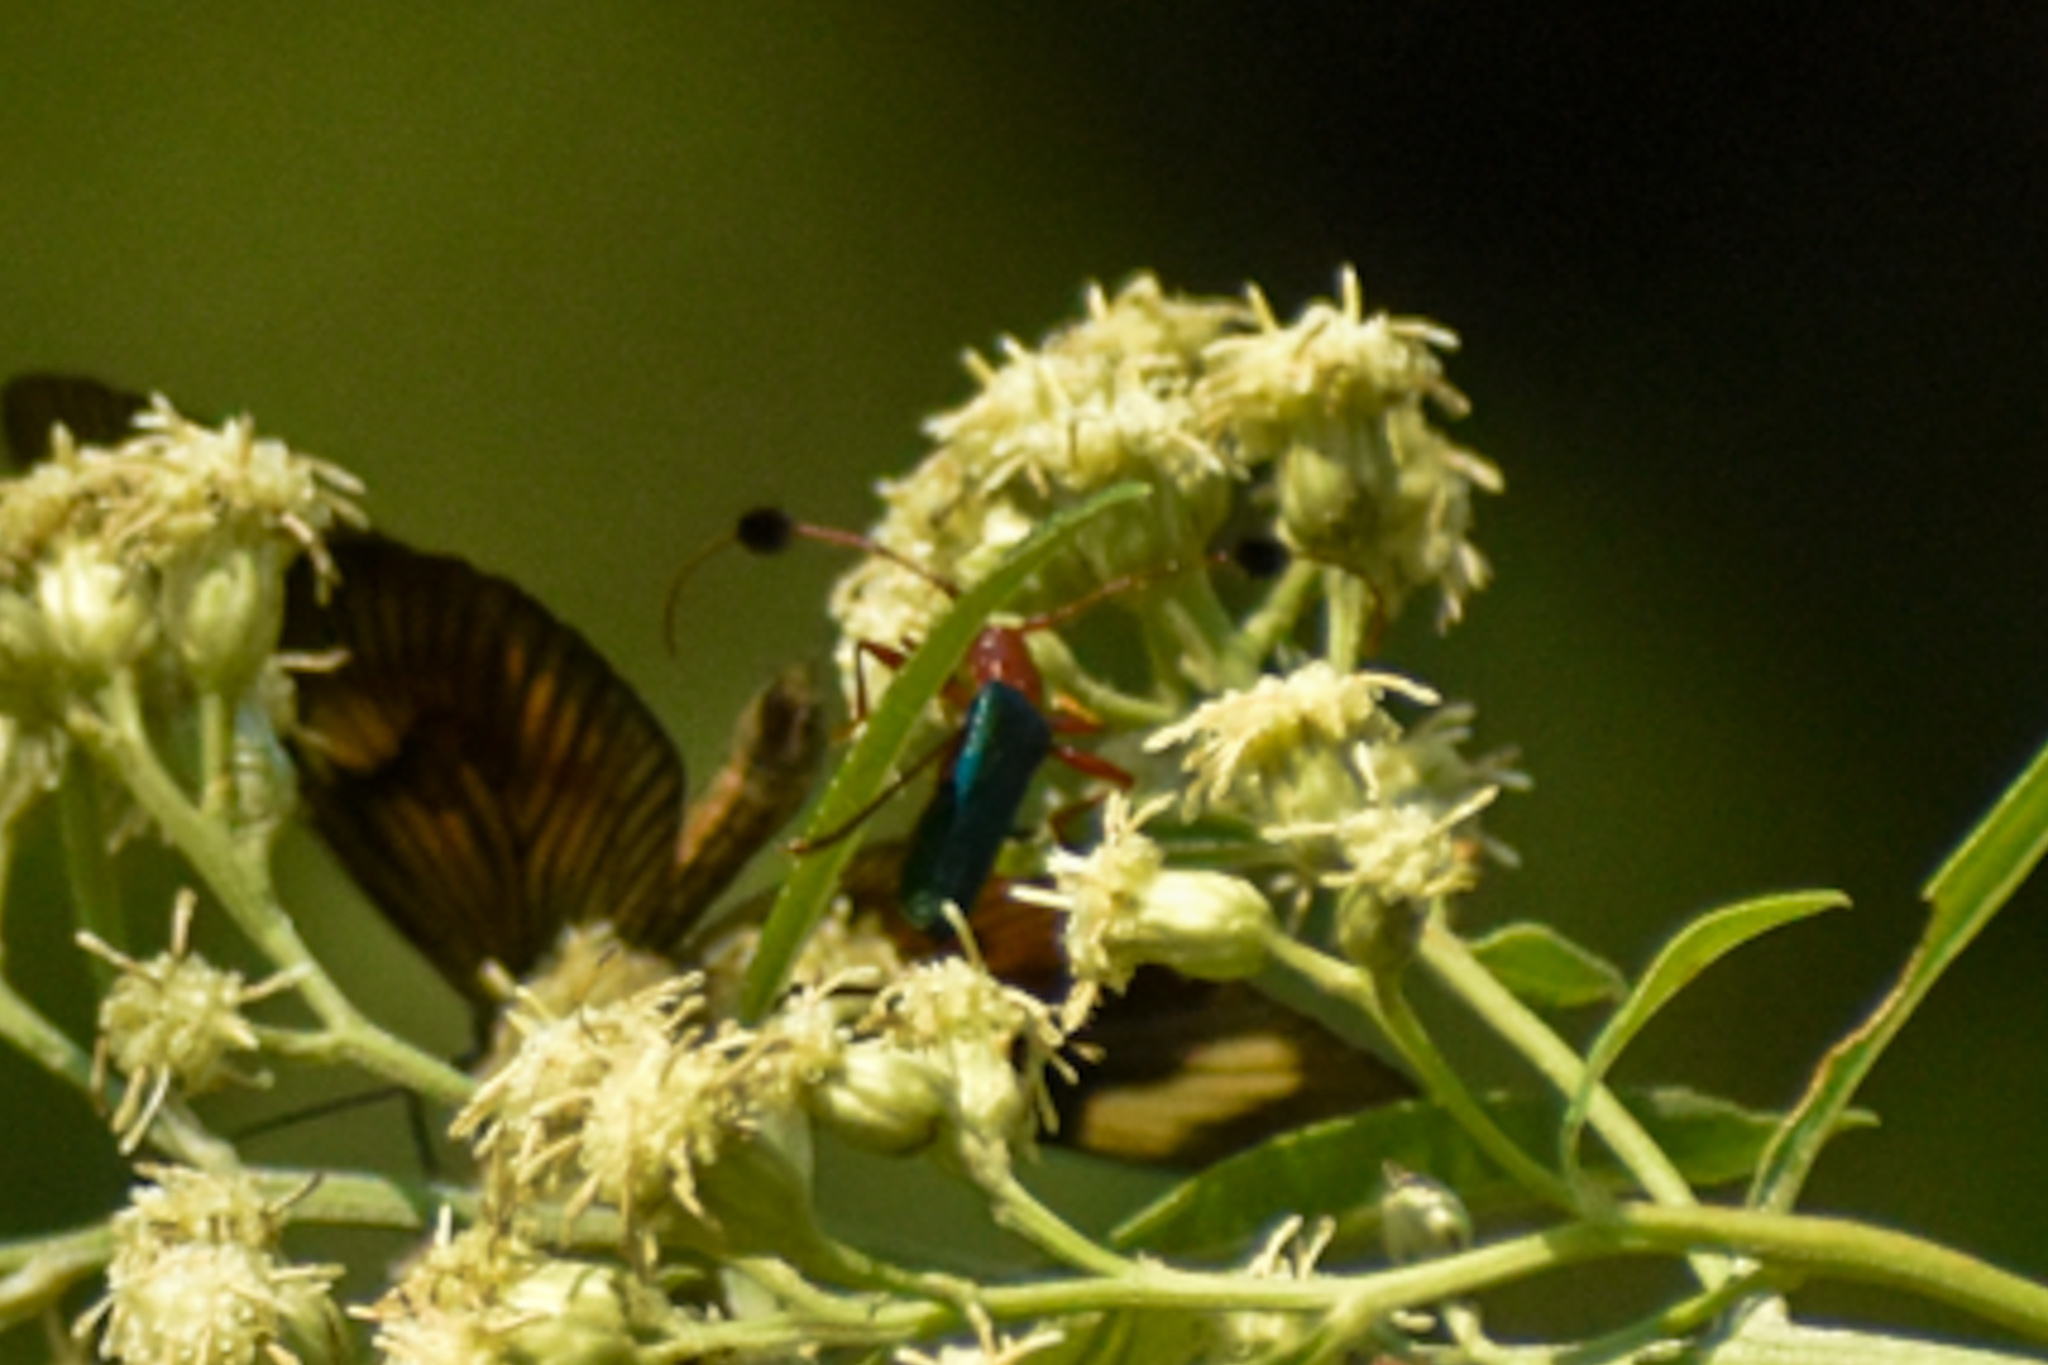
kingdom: Animalia
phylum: Arthropoda
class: Insecta
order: Coleoptera
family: Cerambycidae
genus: Paromoeocerus
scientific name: Paromoeocerus barbicornis
